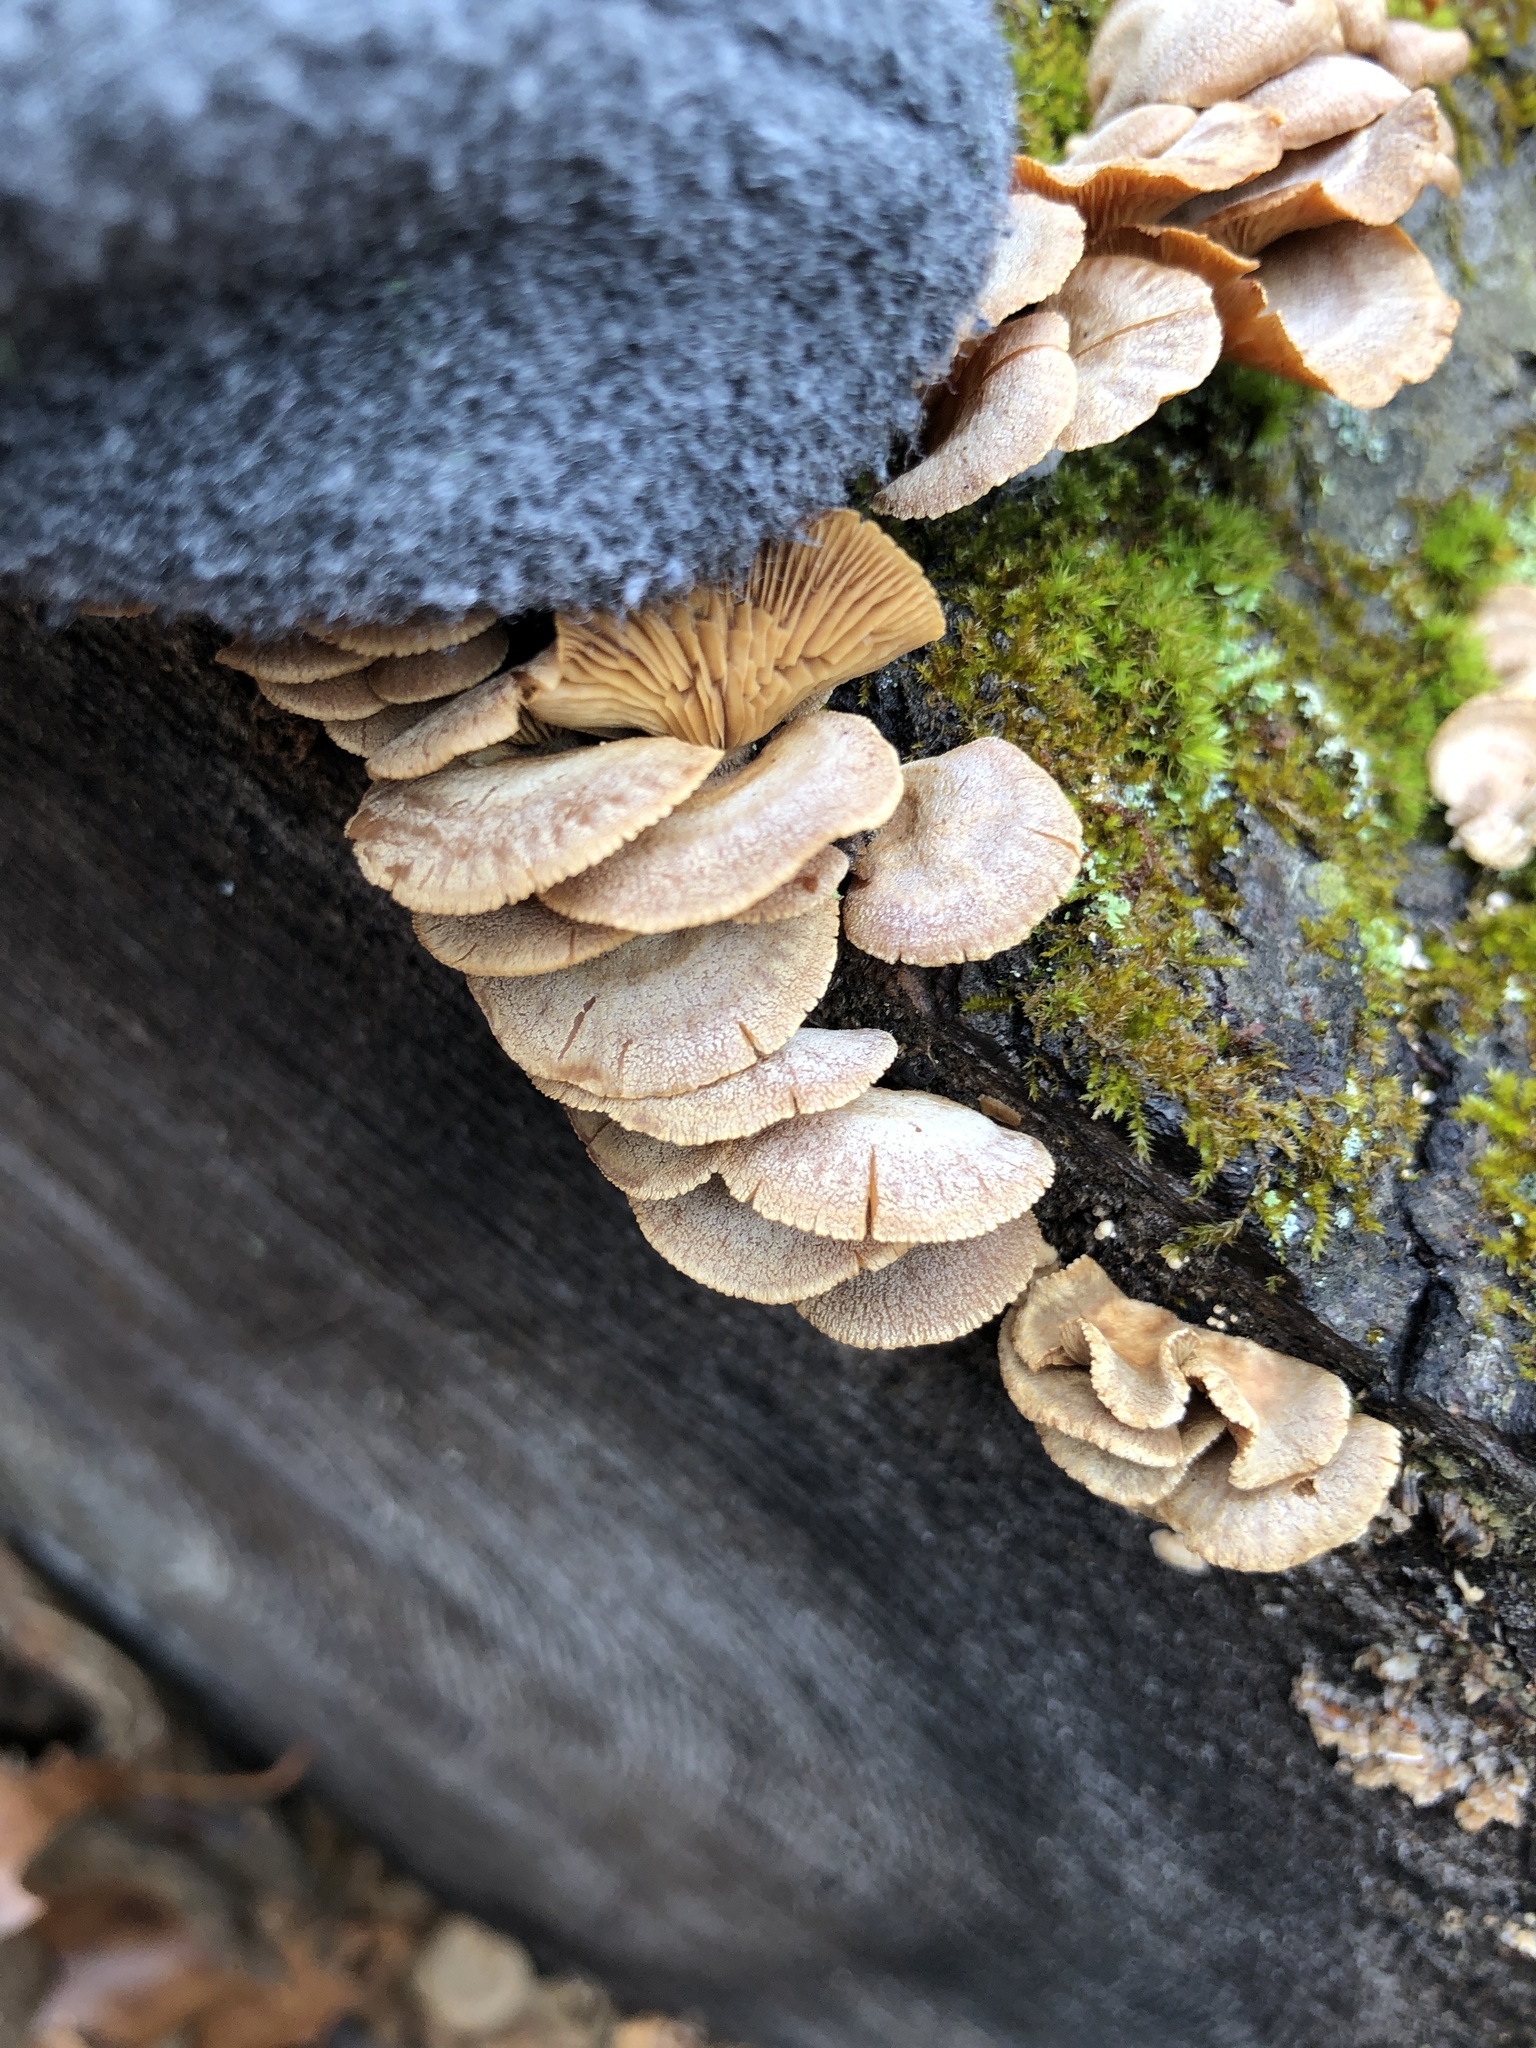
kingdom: Fungi
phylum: Basidiomycota
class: Agaricomycetes
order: Agaricales
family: Mycenaceae
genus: Panellus
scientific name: Panellus stipticus
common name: Bitter oysterling
